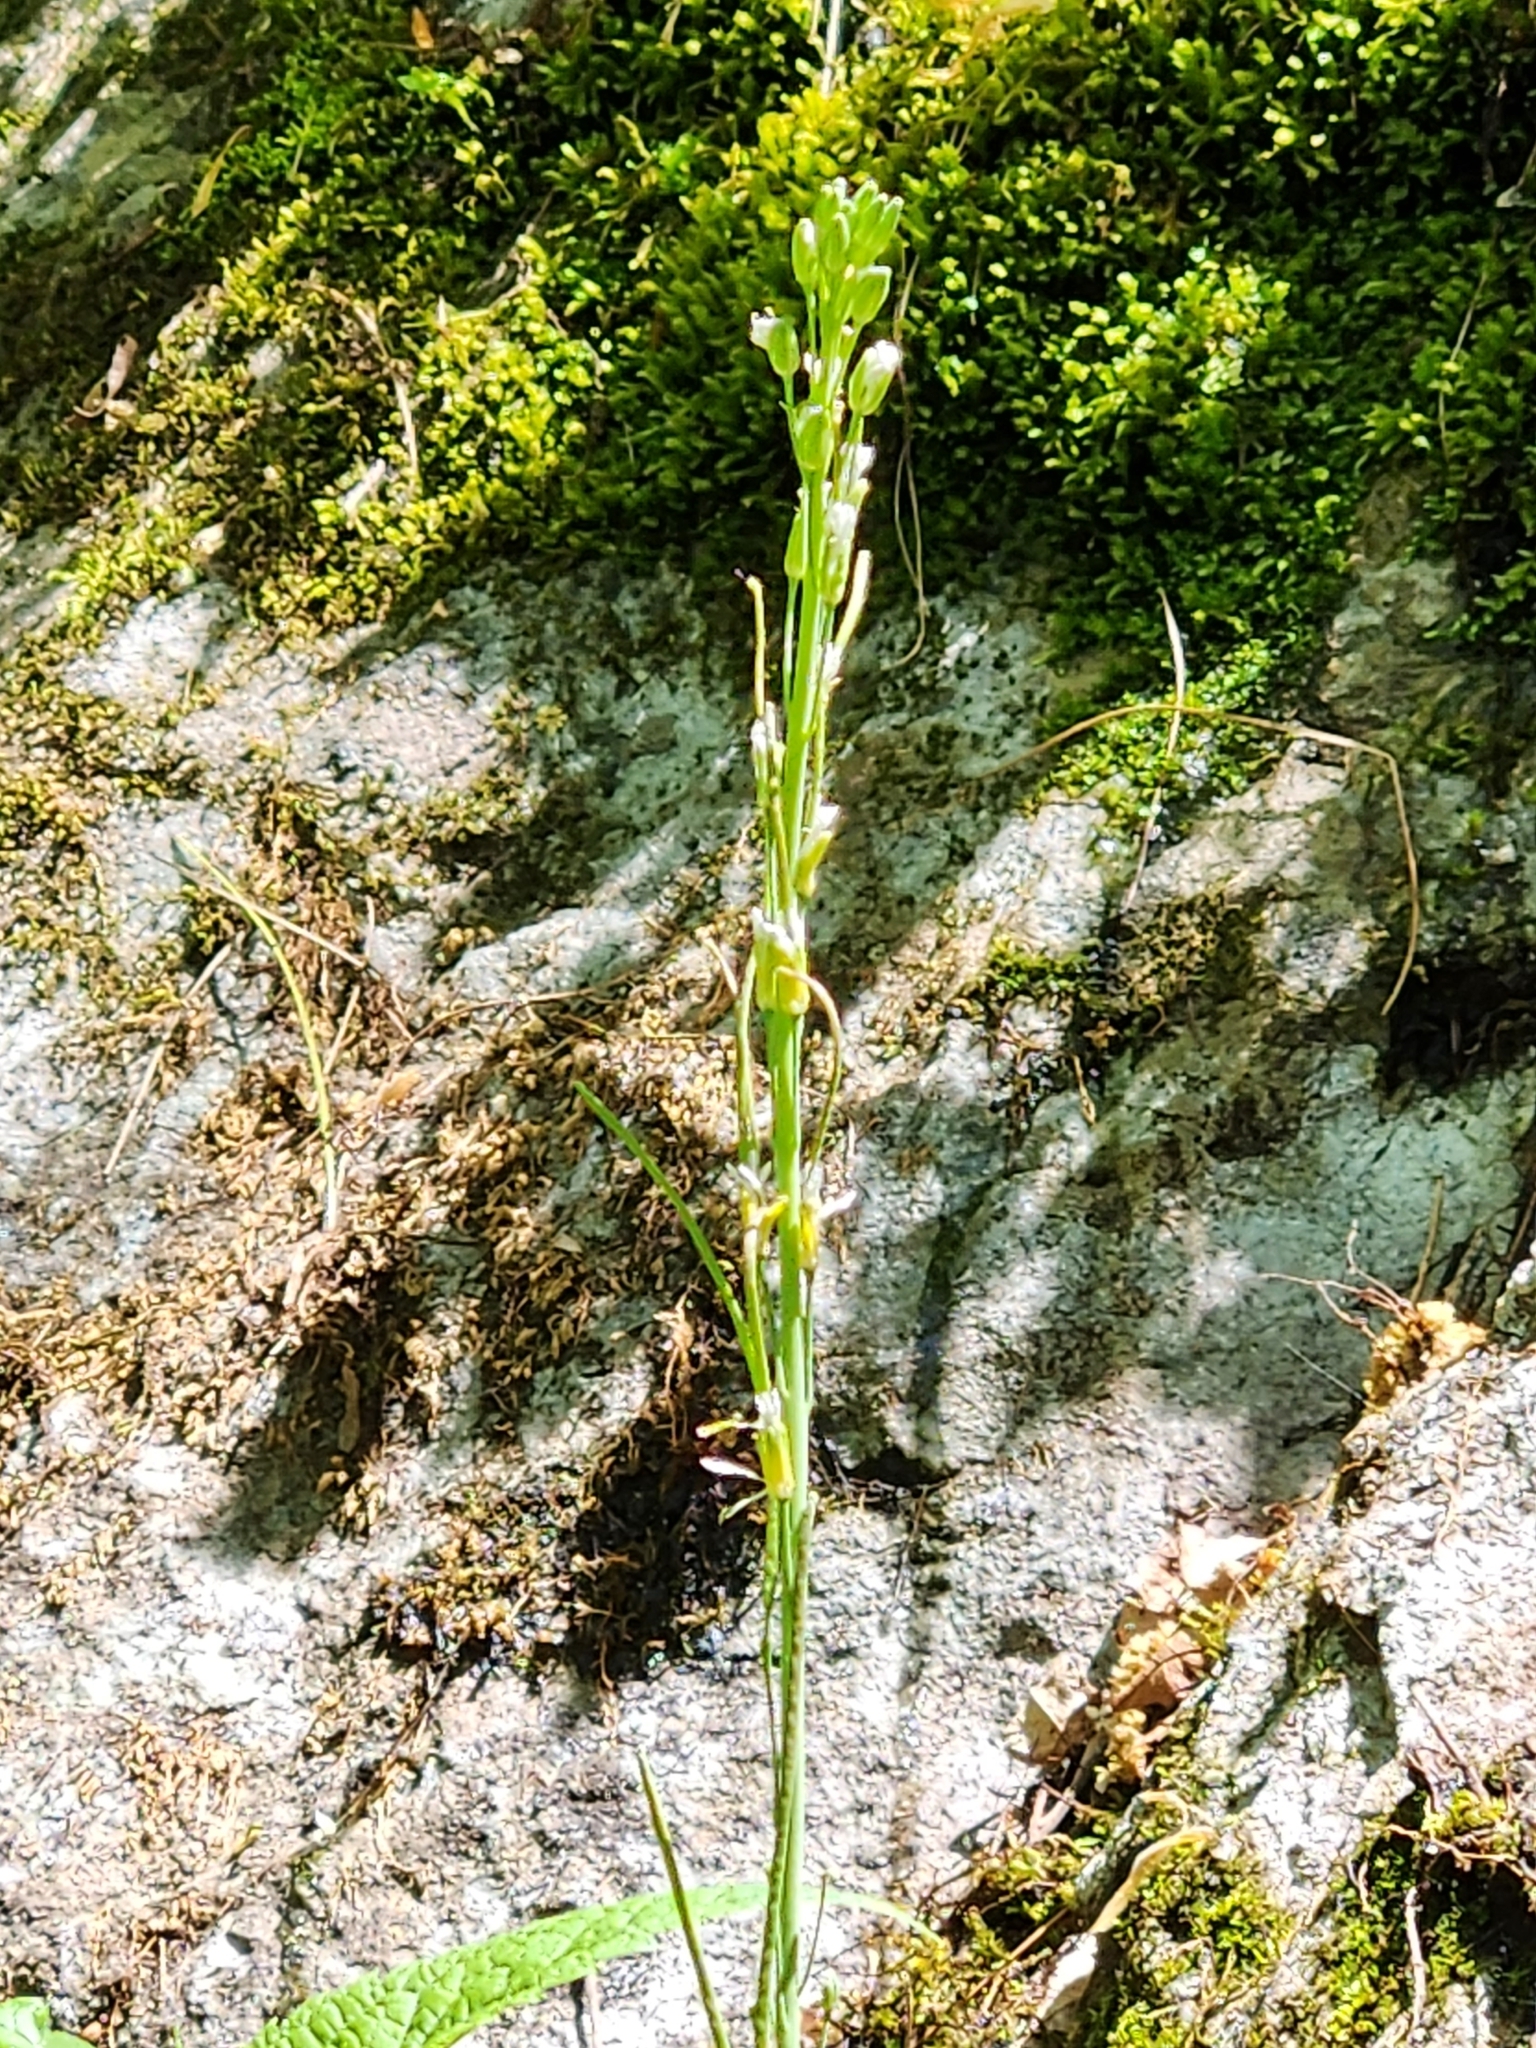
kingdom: Plantae
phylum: Tracheophyta
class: Magnoliopsida
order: Brassicales
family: Brassicaceae
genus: Turritis
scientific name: Turritis glabra
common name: Tower rockcress
